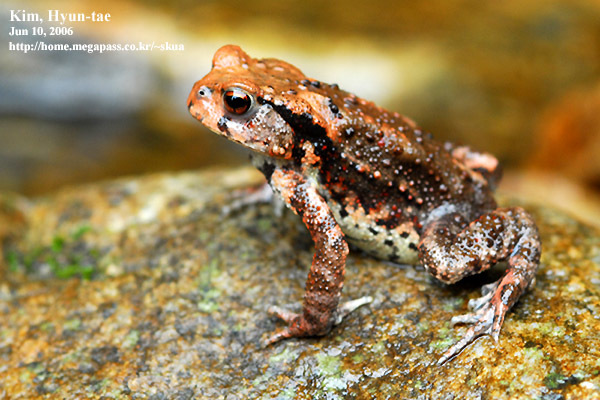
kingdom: Animalia
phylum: Chordata
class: Amphibia
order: Anura
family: Bufonidae
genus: Bufo
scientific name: Bufo gargarizans
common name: Asiatic toad
